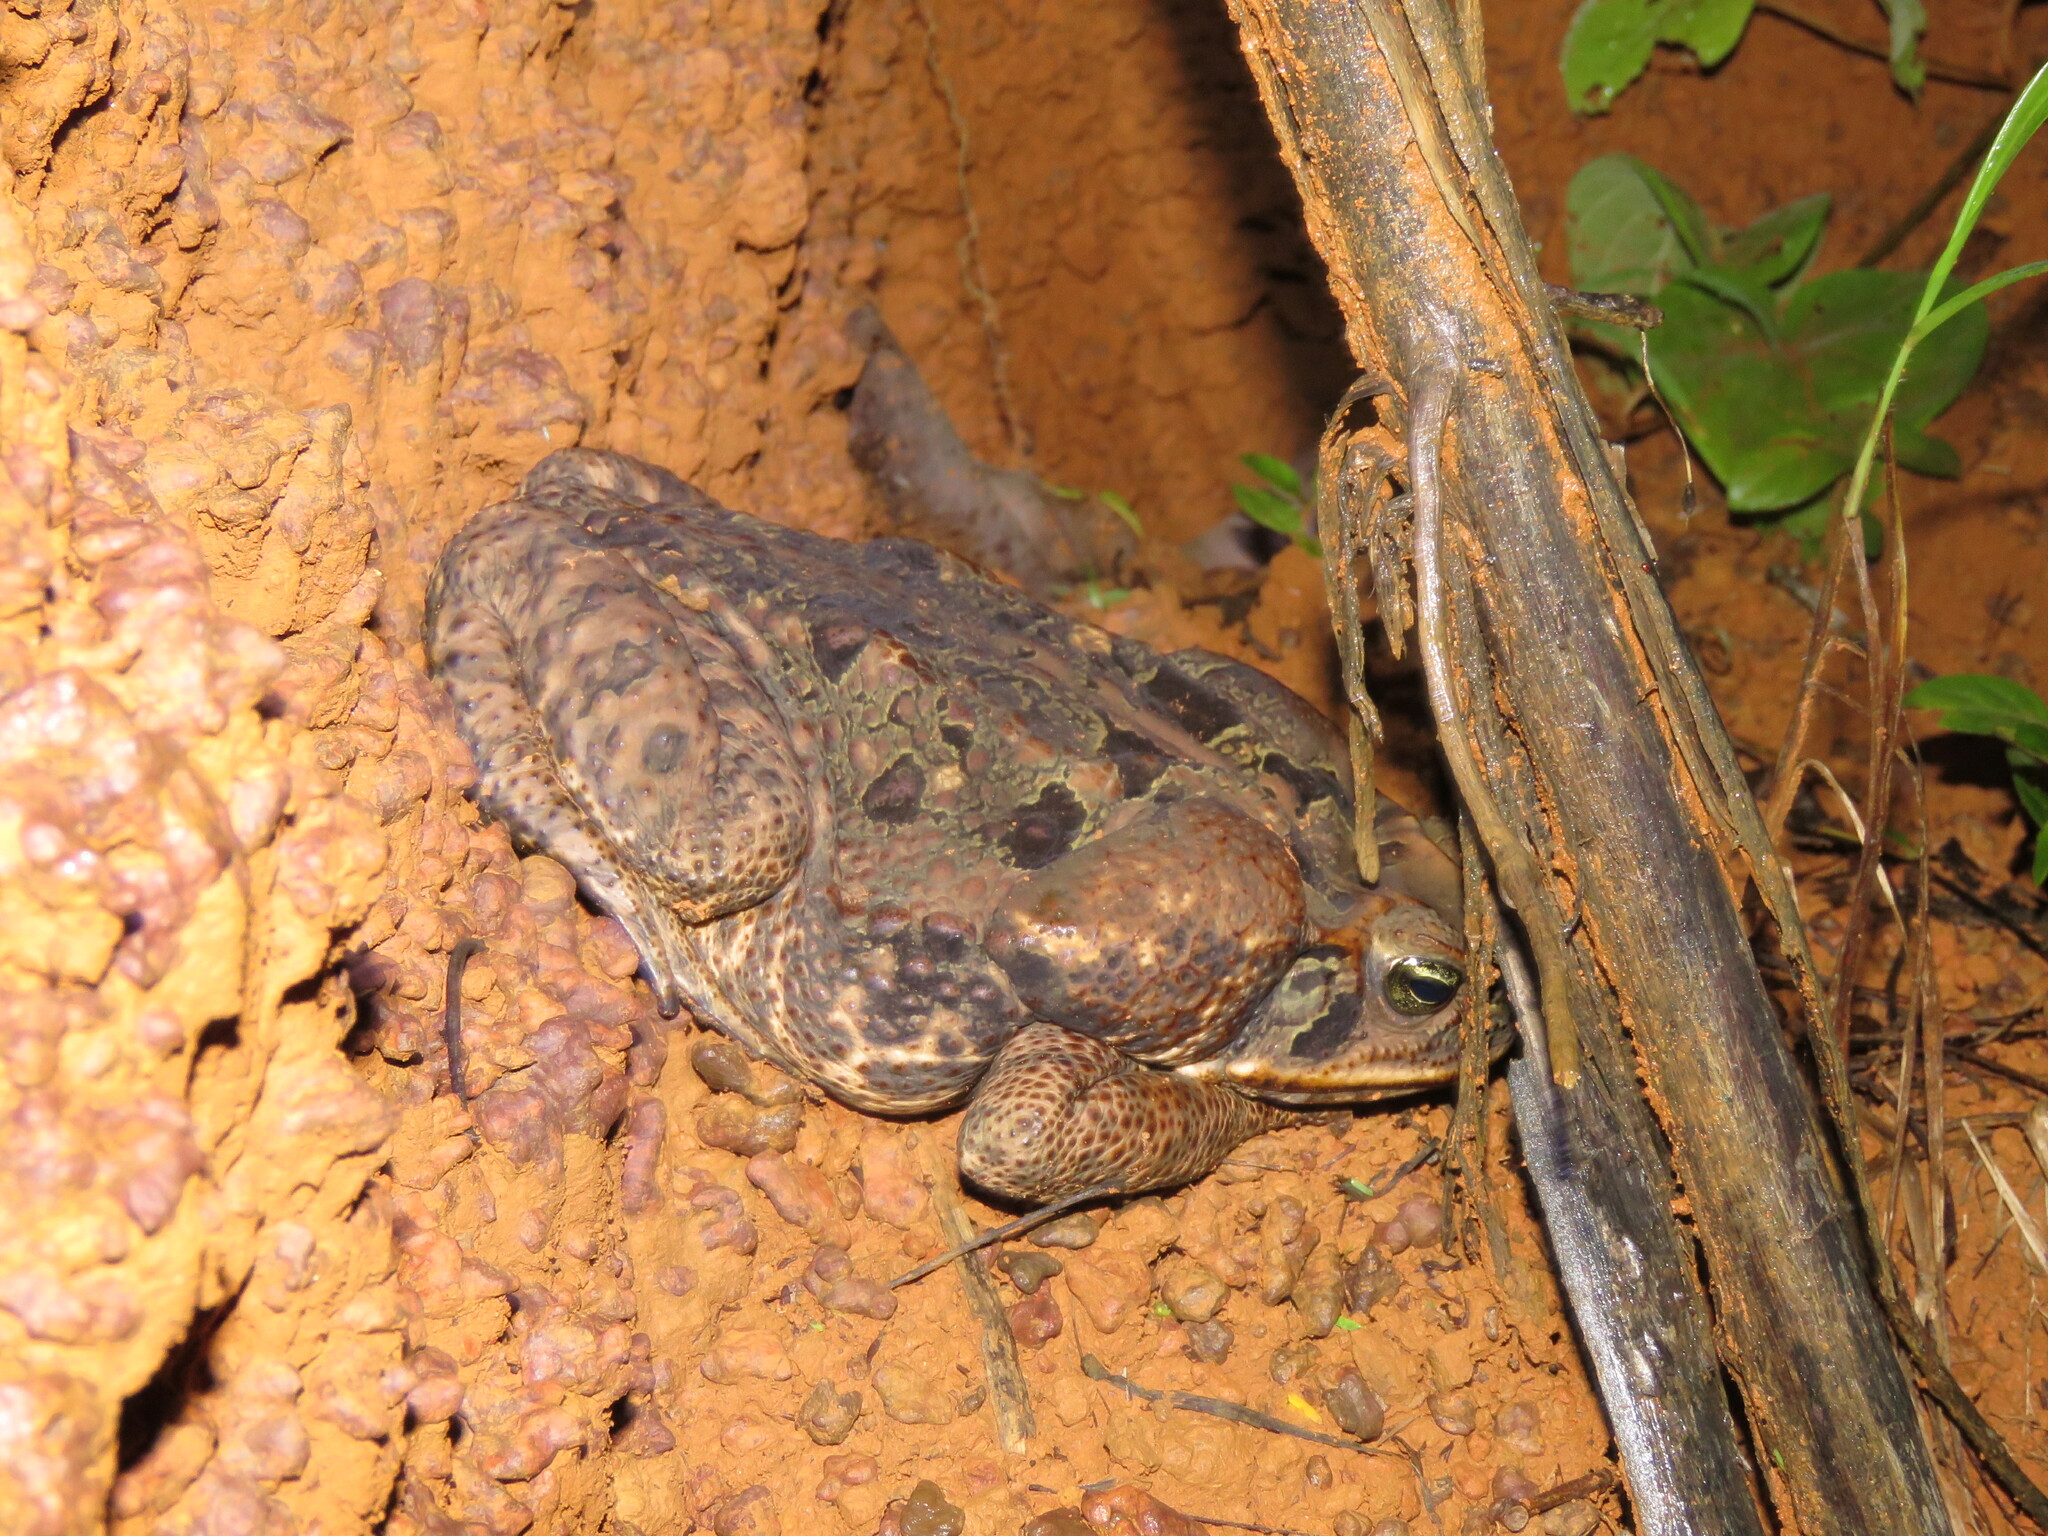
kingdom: Animalia
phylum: Chordata
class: Amphibia
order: Anura
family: Bufonidae
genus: Rhinella
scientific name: Rhinella diptycha
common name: Cope's toad
